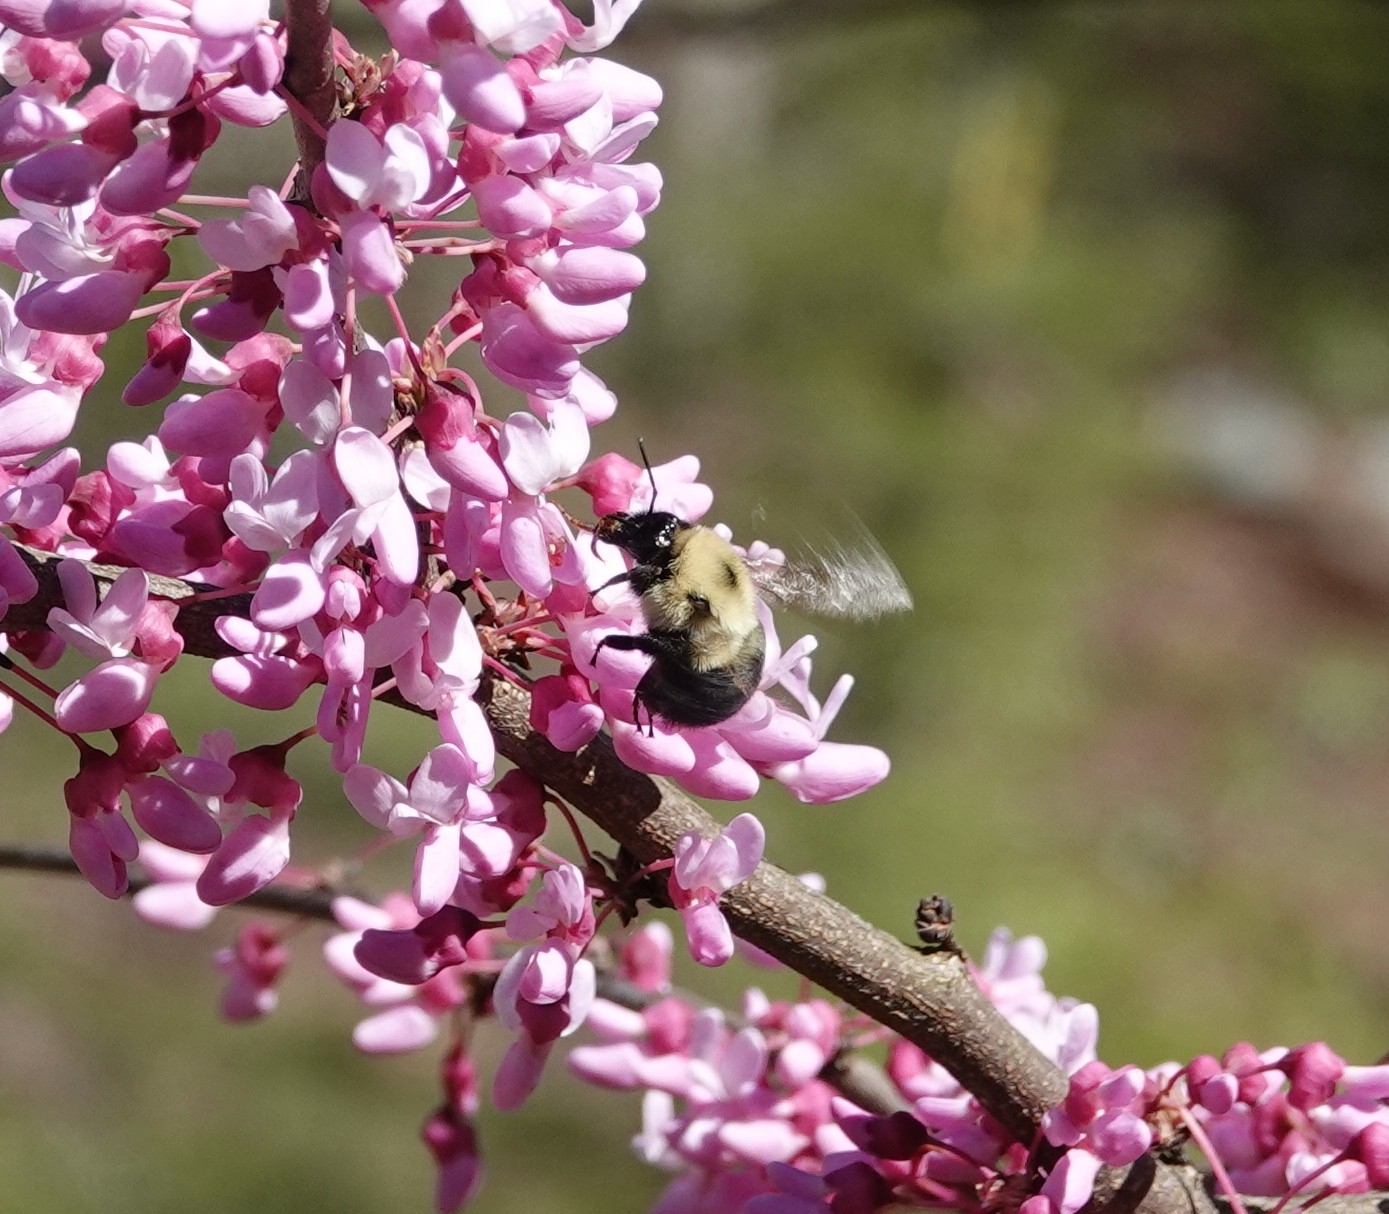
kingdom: Animalia
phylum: Arthropoda
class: Insecta
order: Hymenoptera
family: Apidae
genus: Bombus
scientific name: Bombus bimaculatus
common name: Two-spotted bumble bee
